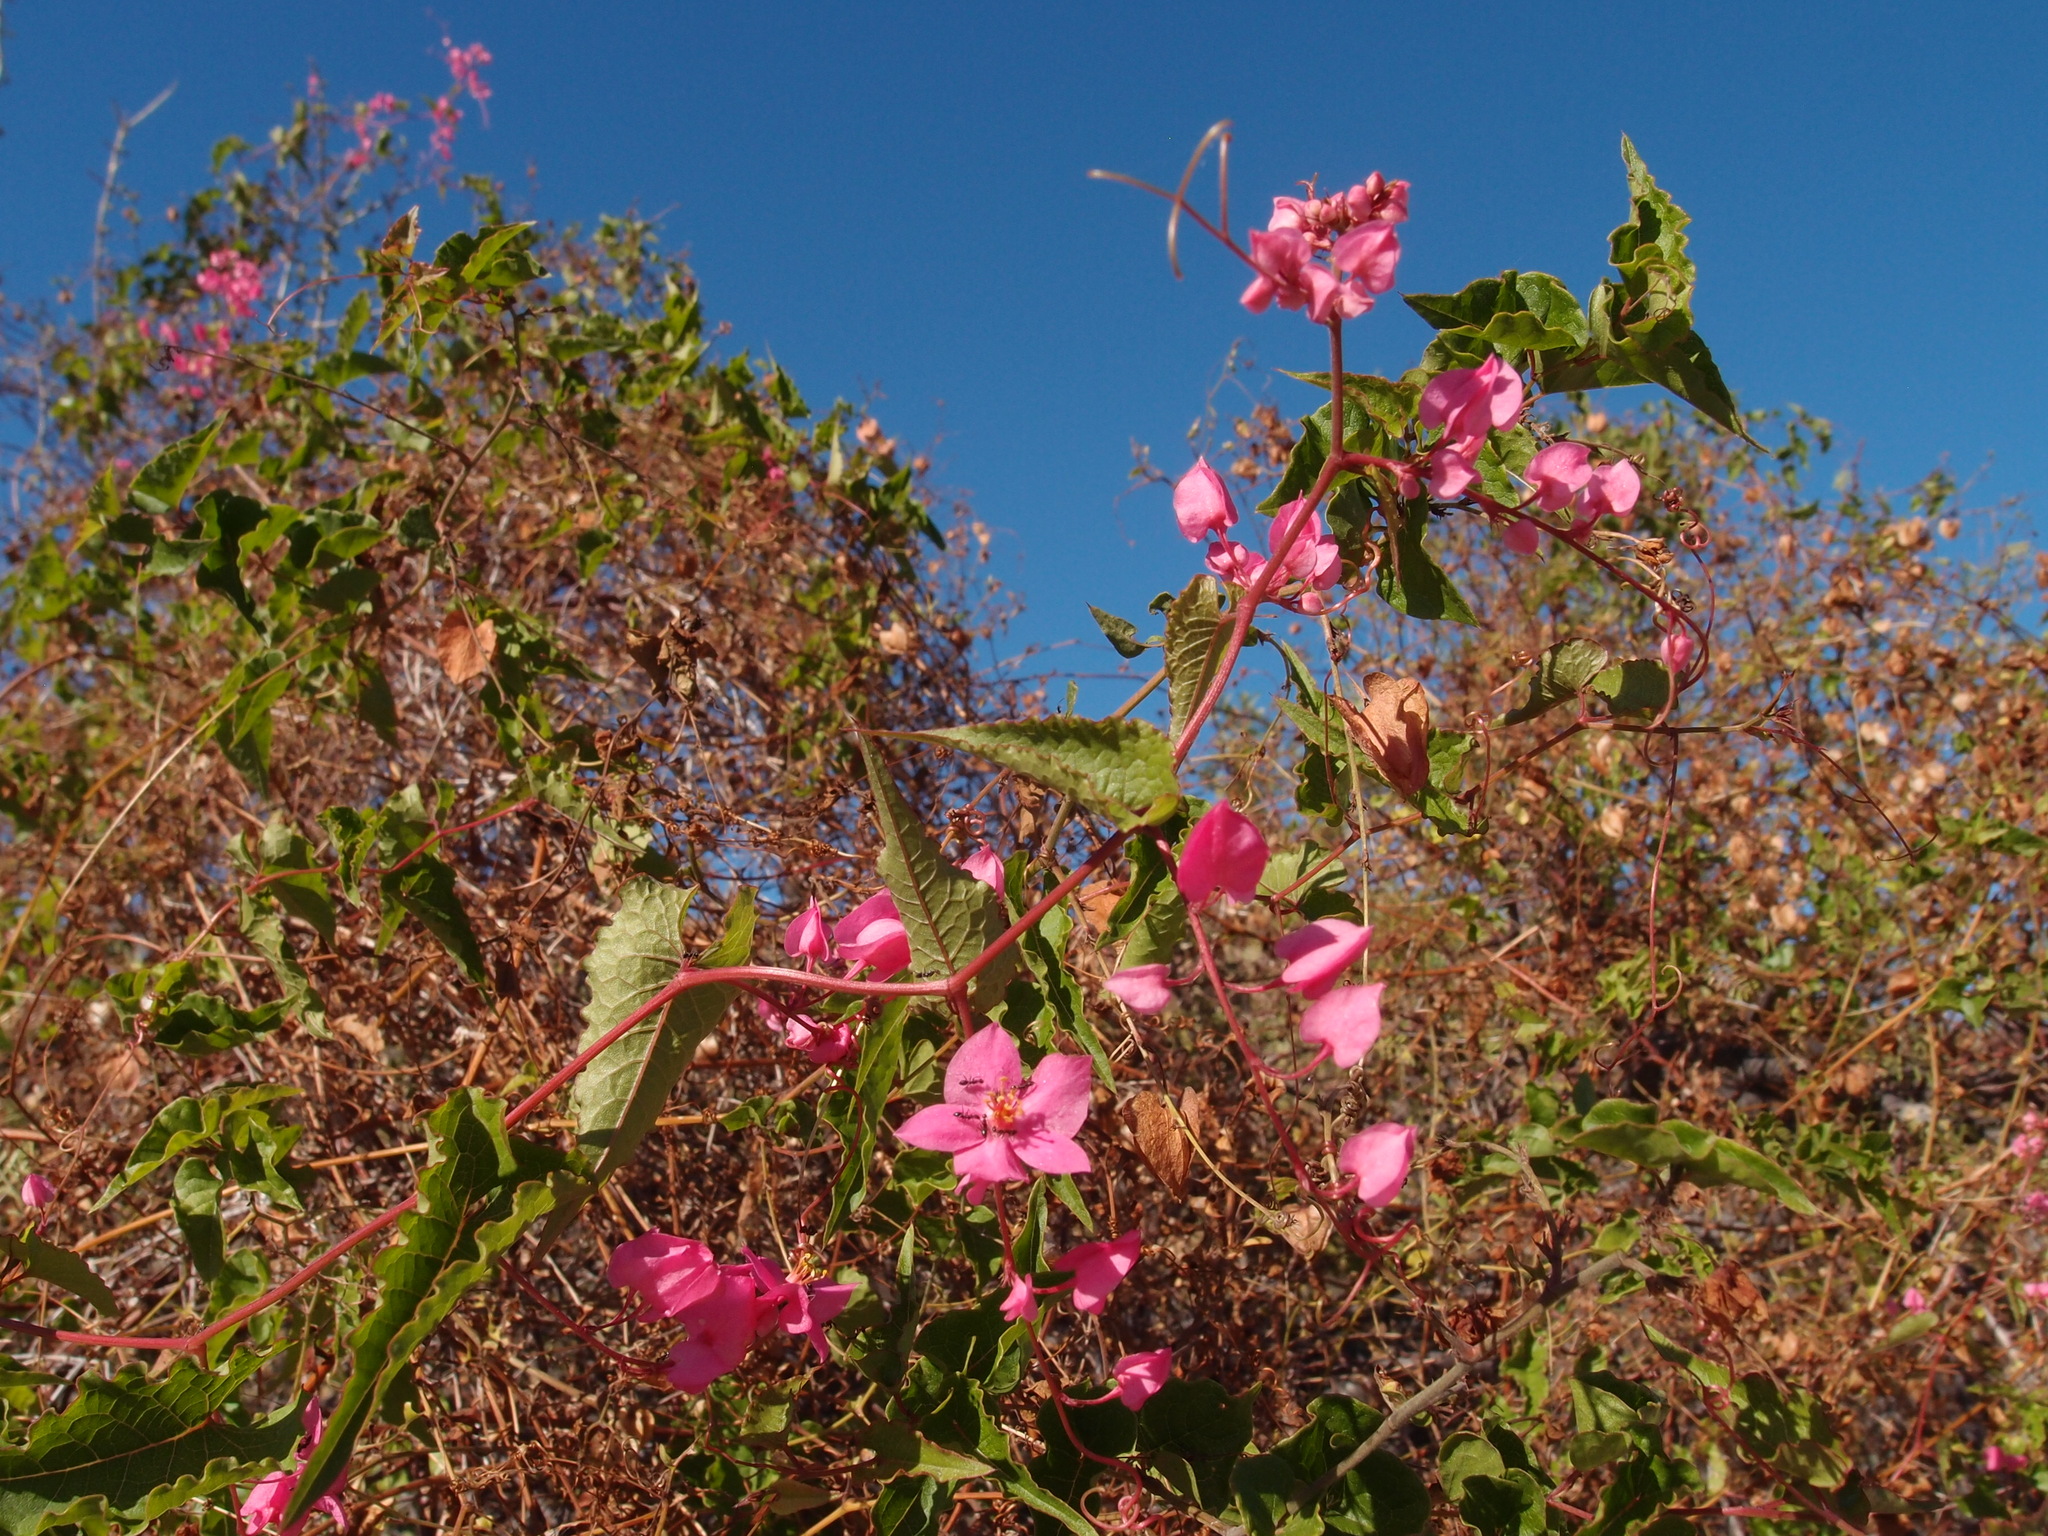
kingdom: Plantae
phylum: Tracheophyta
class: Magnoliopsida
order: Caryophyllales
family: Polygonaceae
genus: Antigonon
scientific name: Antigonon leptopus
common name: Coral vine
